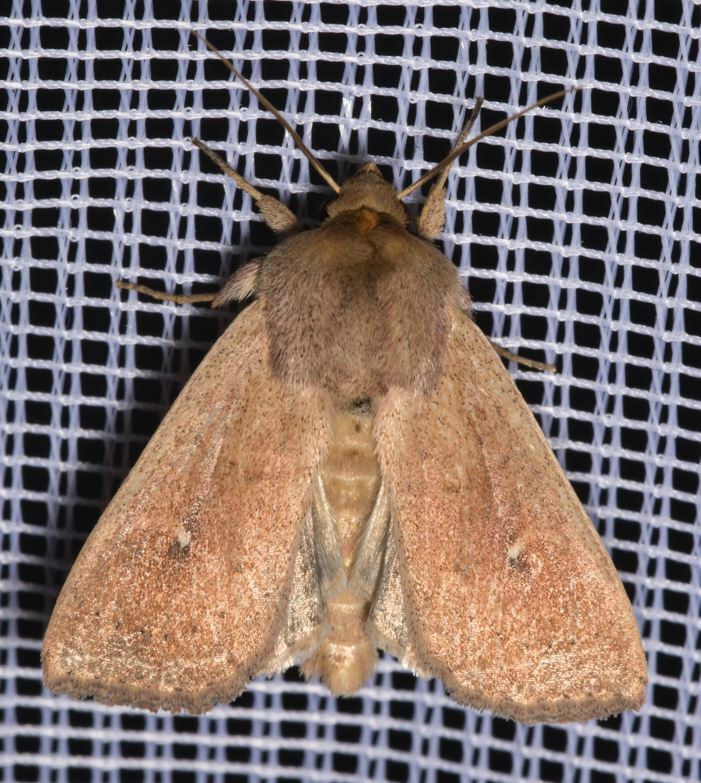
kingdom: Animalia
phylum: Arthropoda
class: Insecta
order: Lepidoptera
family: Noctuidae
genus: Mythimna
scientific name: Mythimna ferrago
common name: Clay
